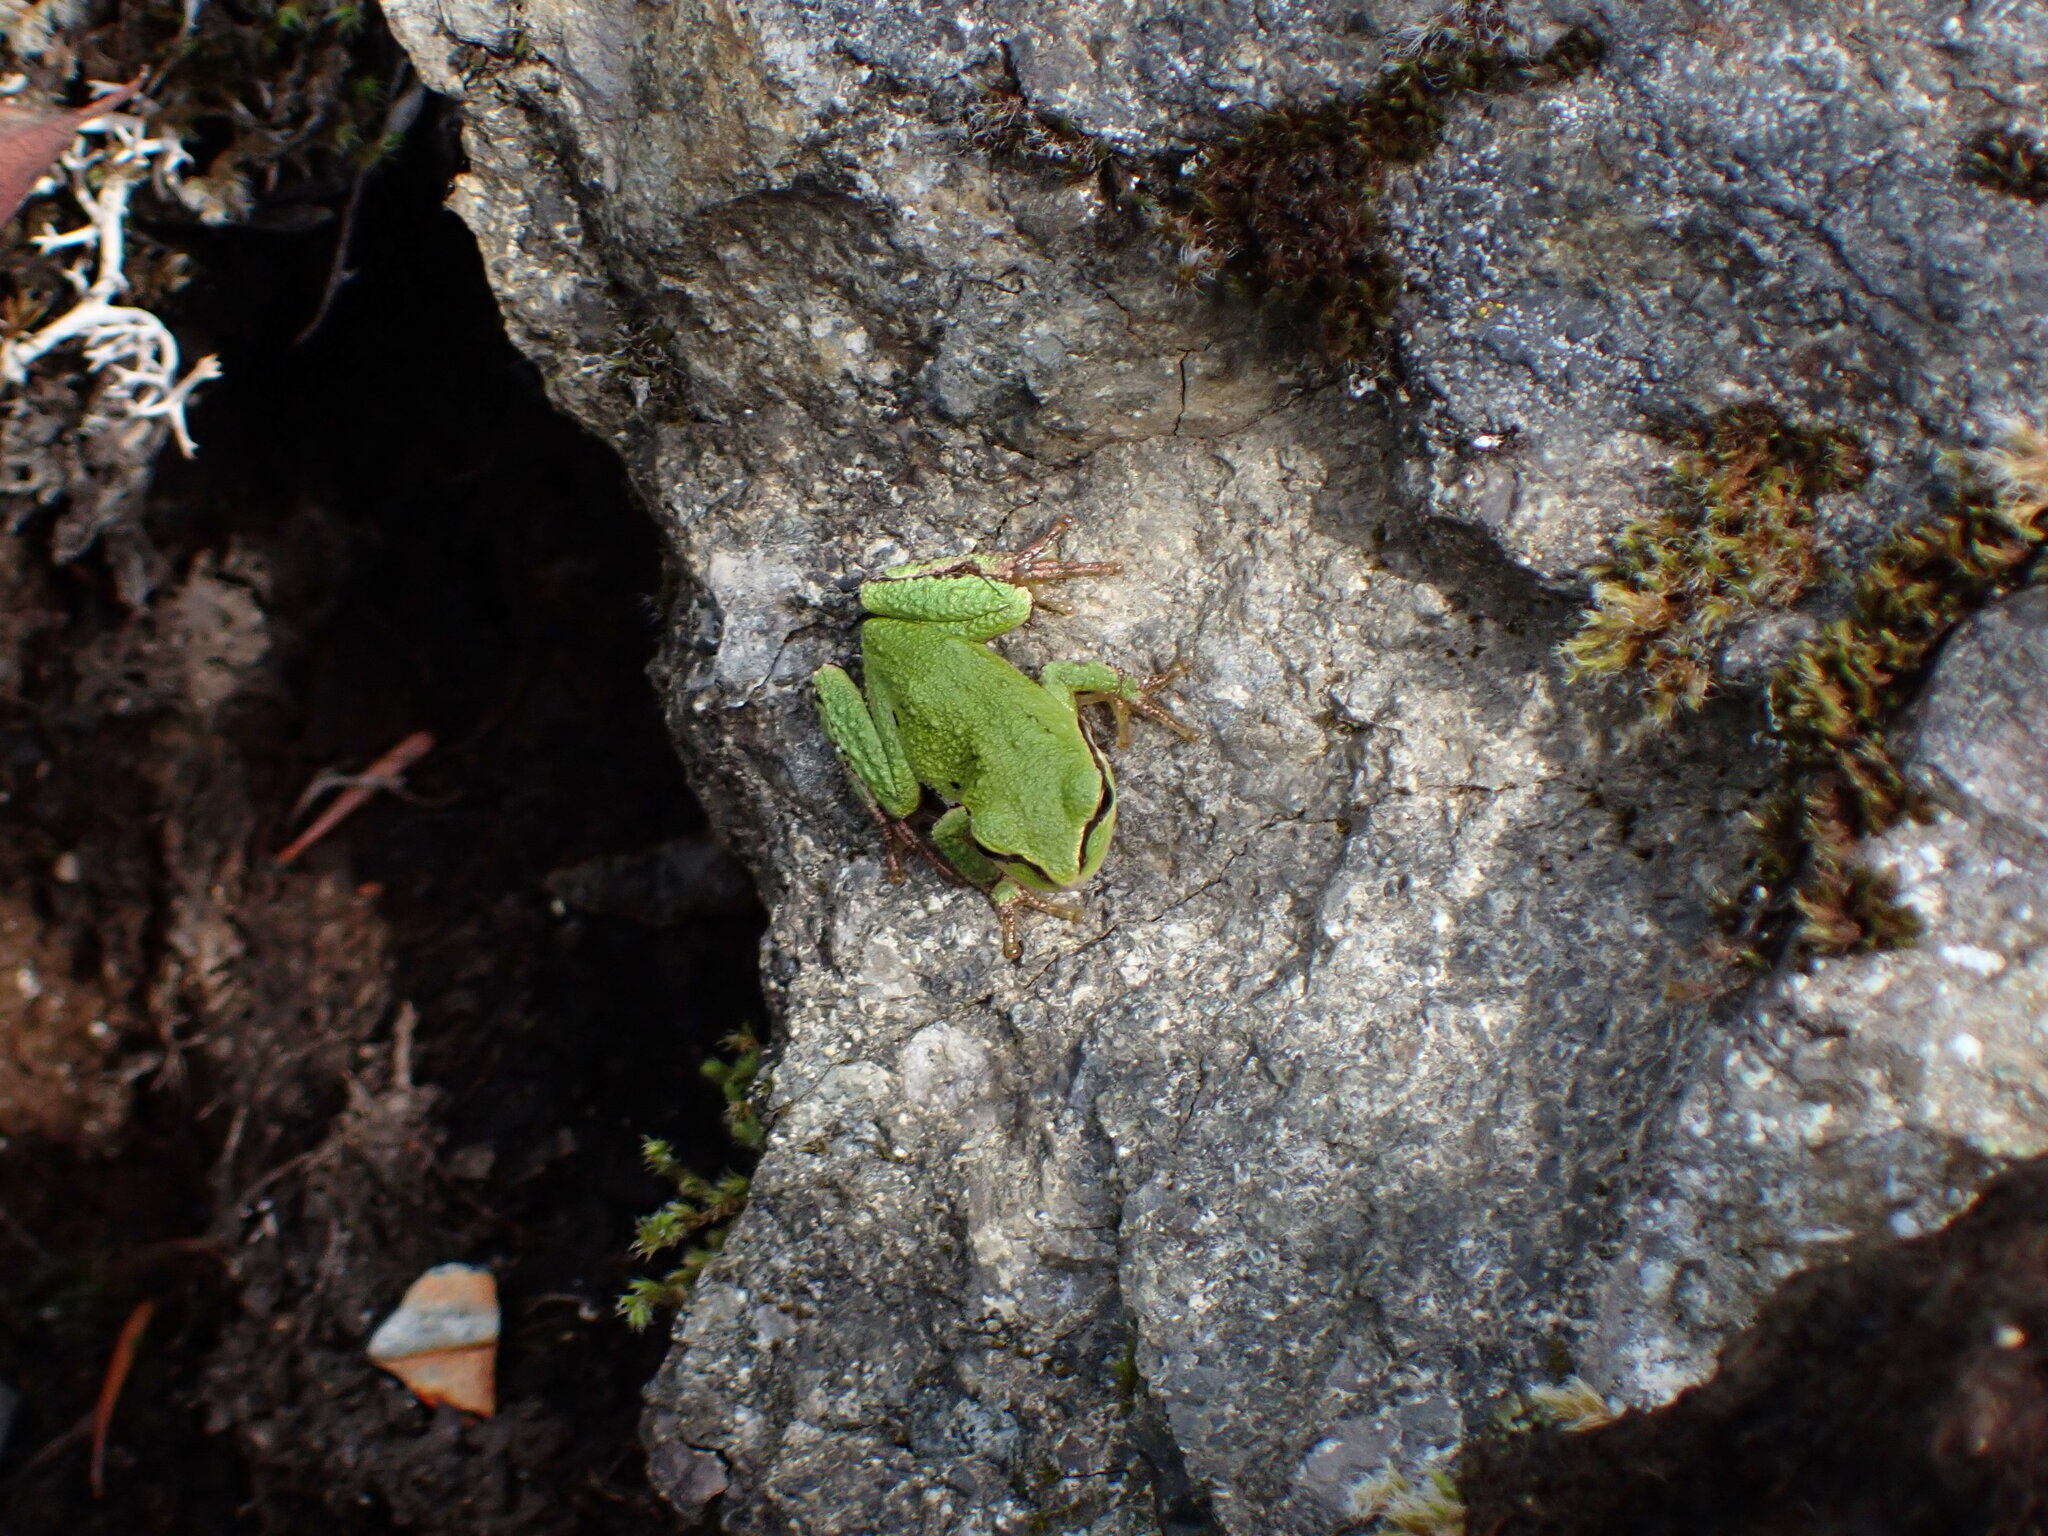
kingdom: Animalia
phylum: Chordata
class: Amphibia
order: Anura
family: Hylidae
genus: Pseudacris
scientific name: Pseudacris regilla
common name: Pacific chorus frog
